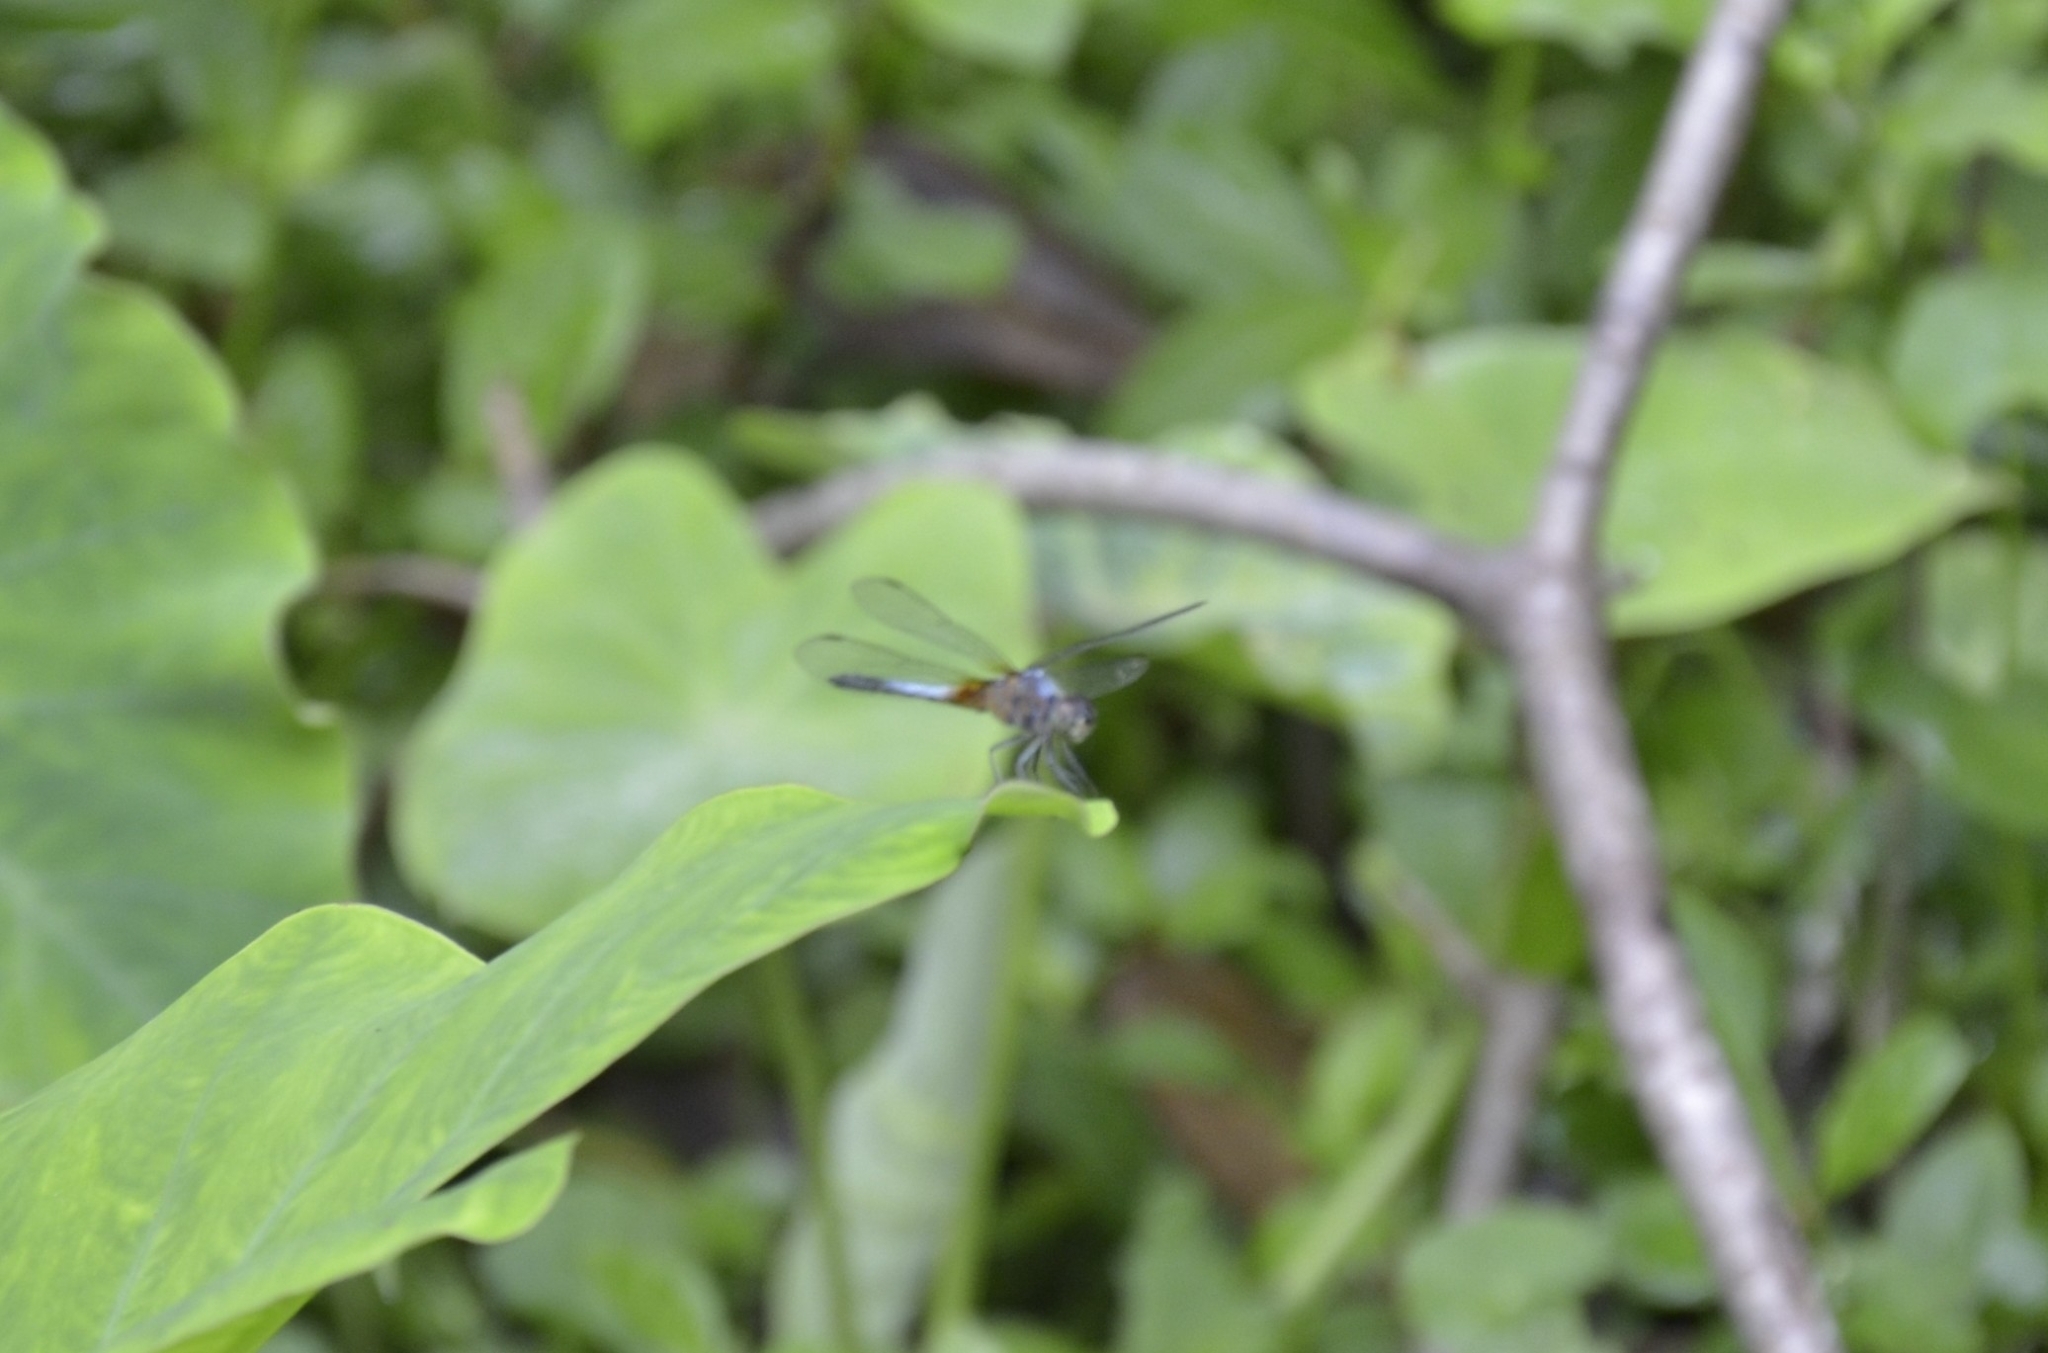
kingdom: Animalia
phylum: Arthropoda
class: Insecta
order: Odonata
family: Libellulidae
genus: Brachydiplax
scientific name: Brachydiplax chalybea
